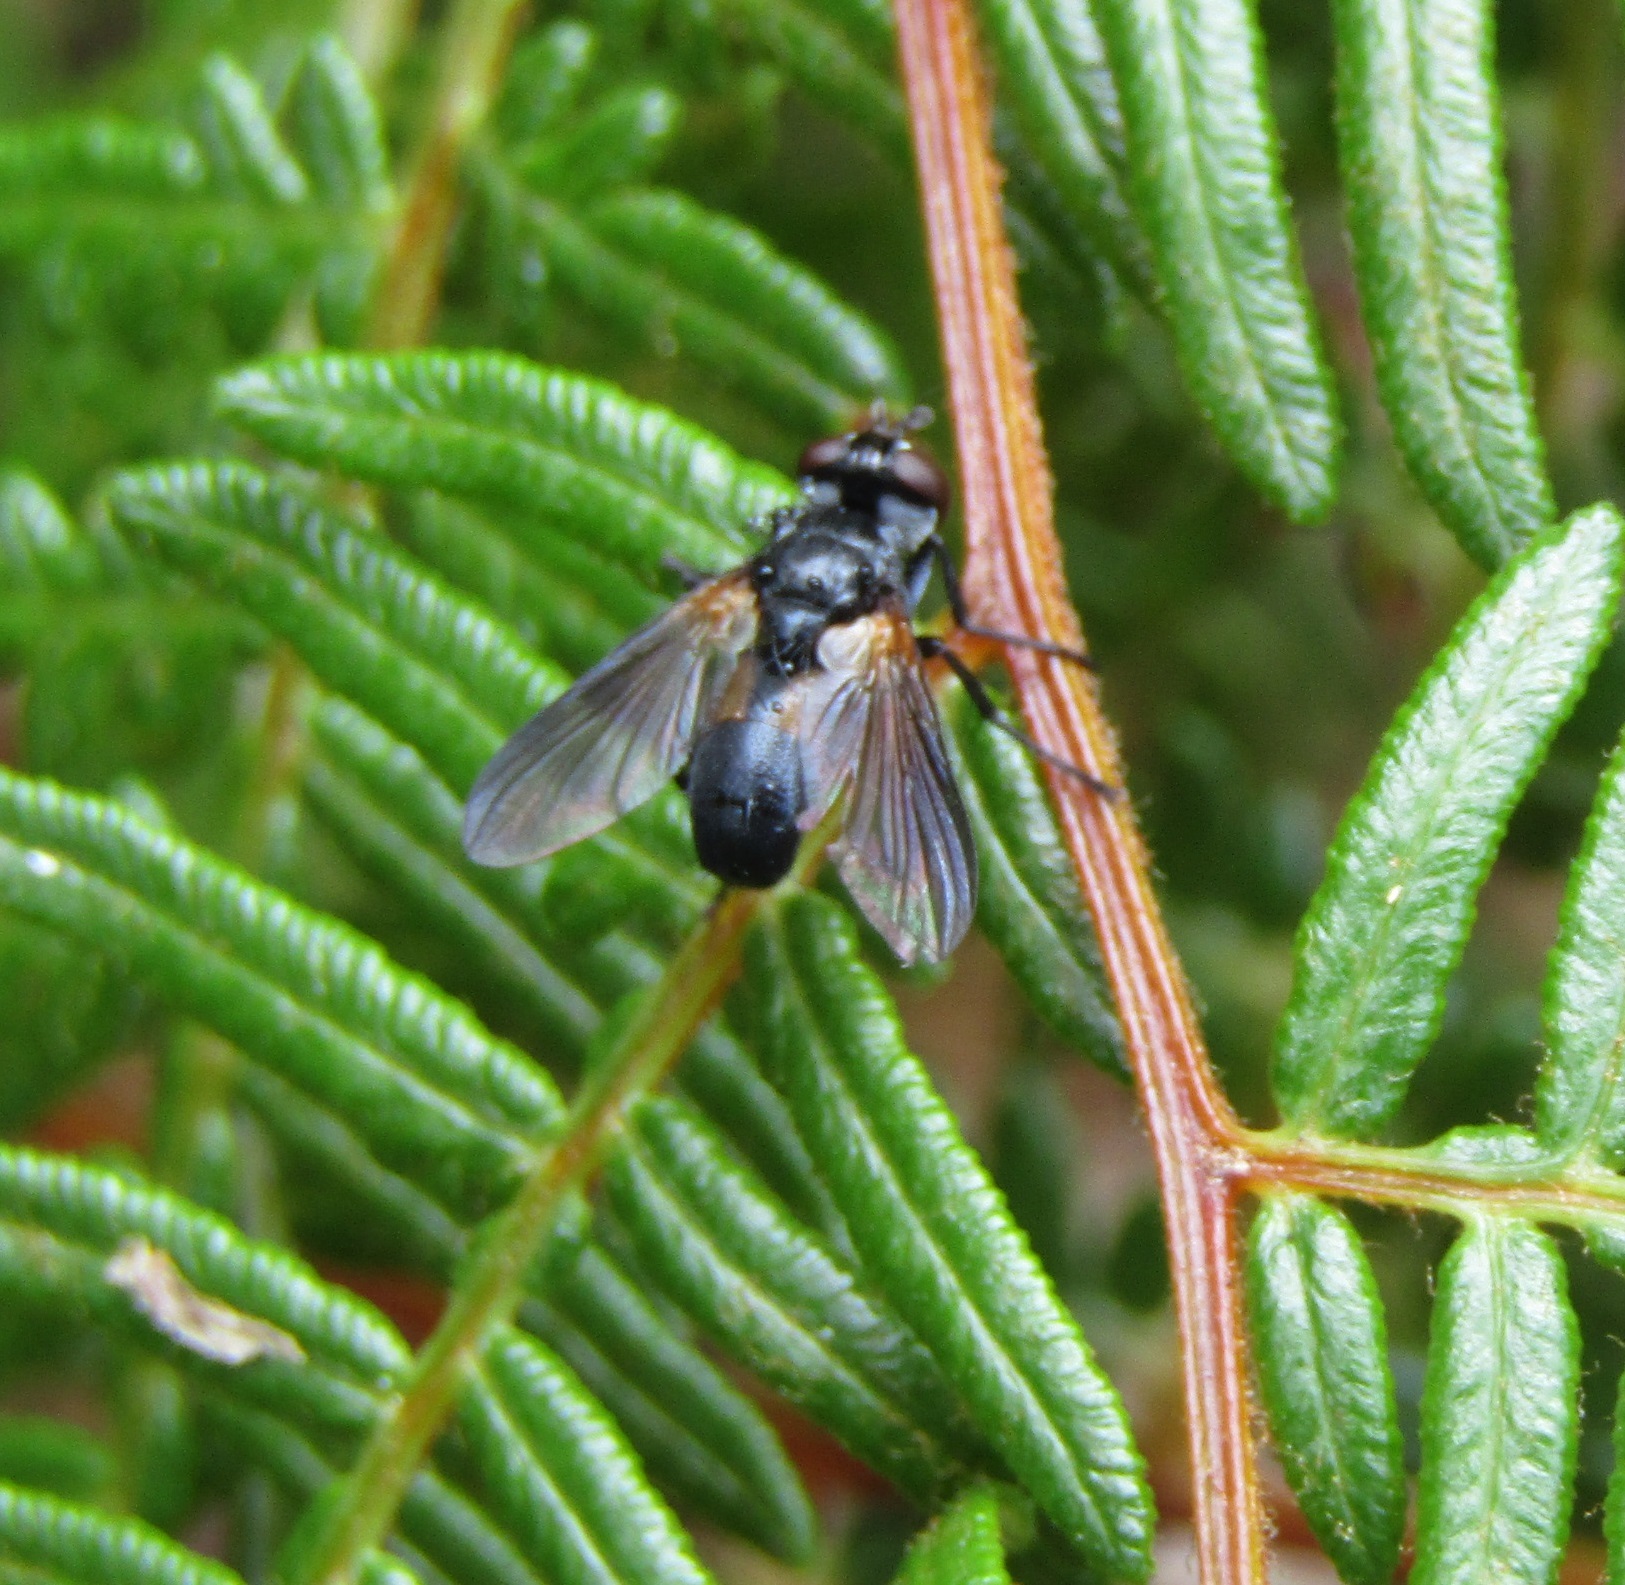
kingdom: Animalia
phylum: Arthropoda
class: Insecta
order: Diptera
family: Tachinidae
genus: Hemyda
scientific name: Hemyda
